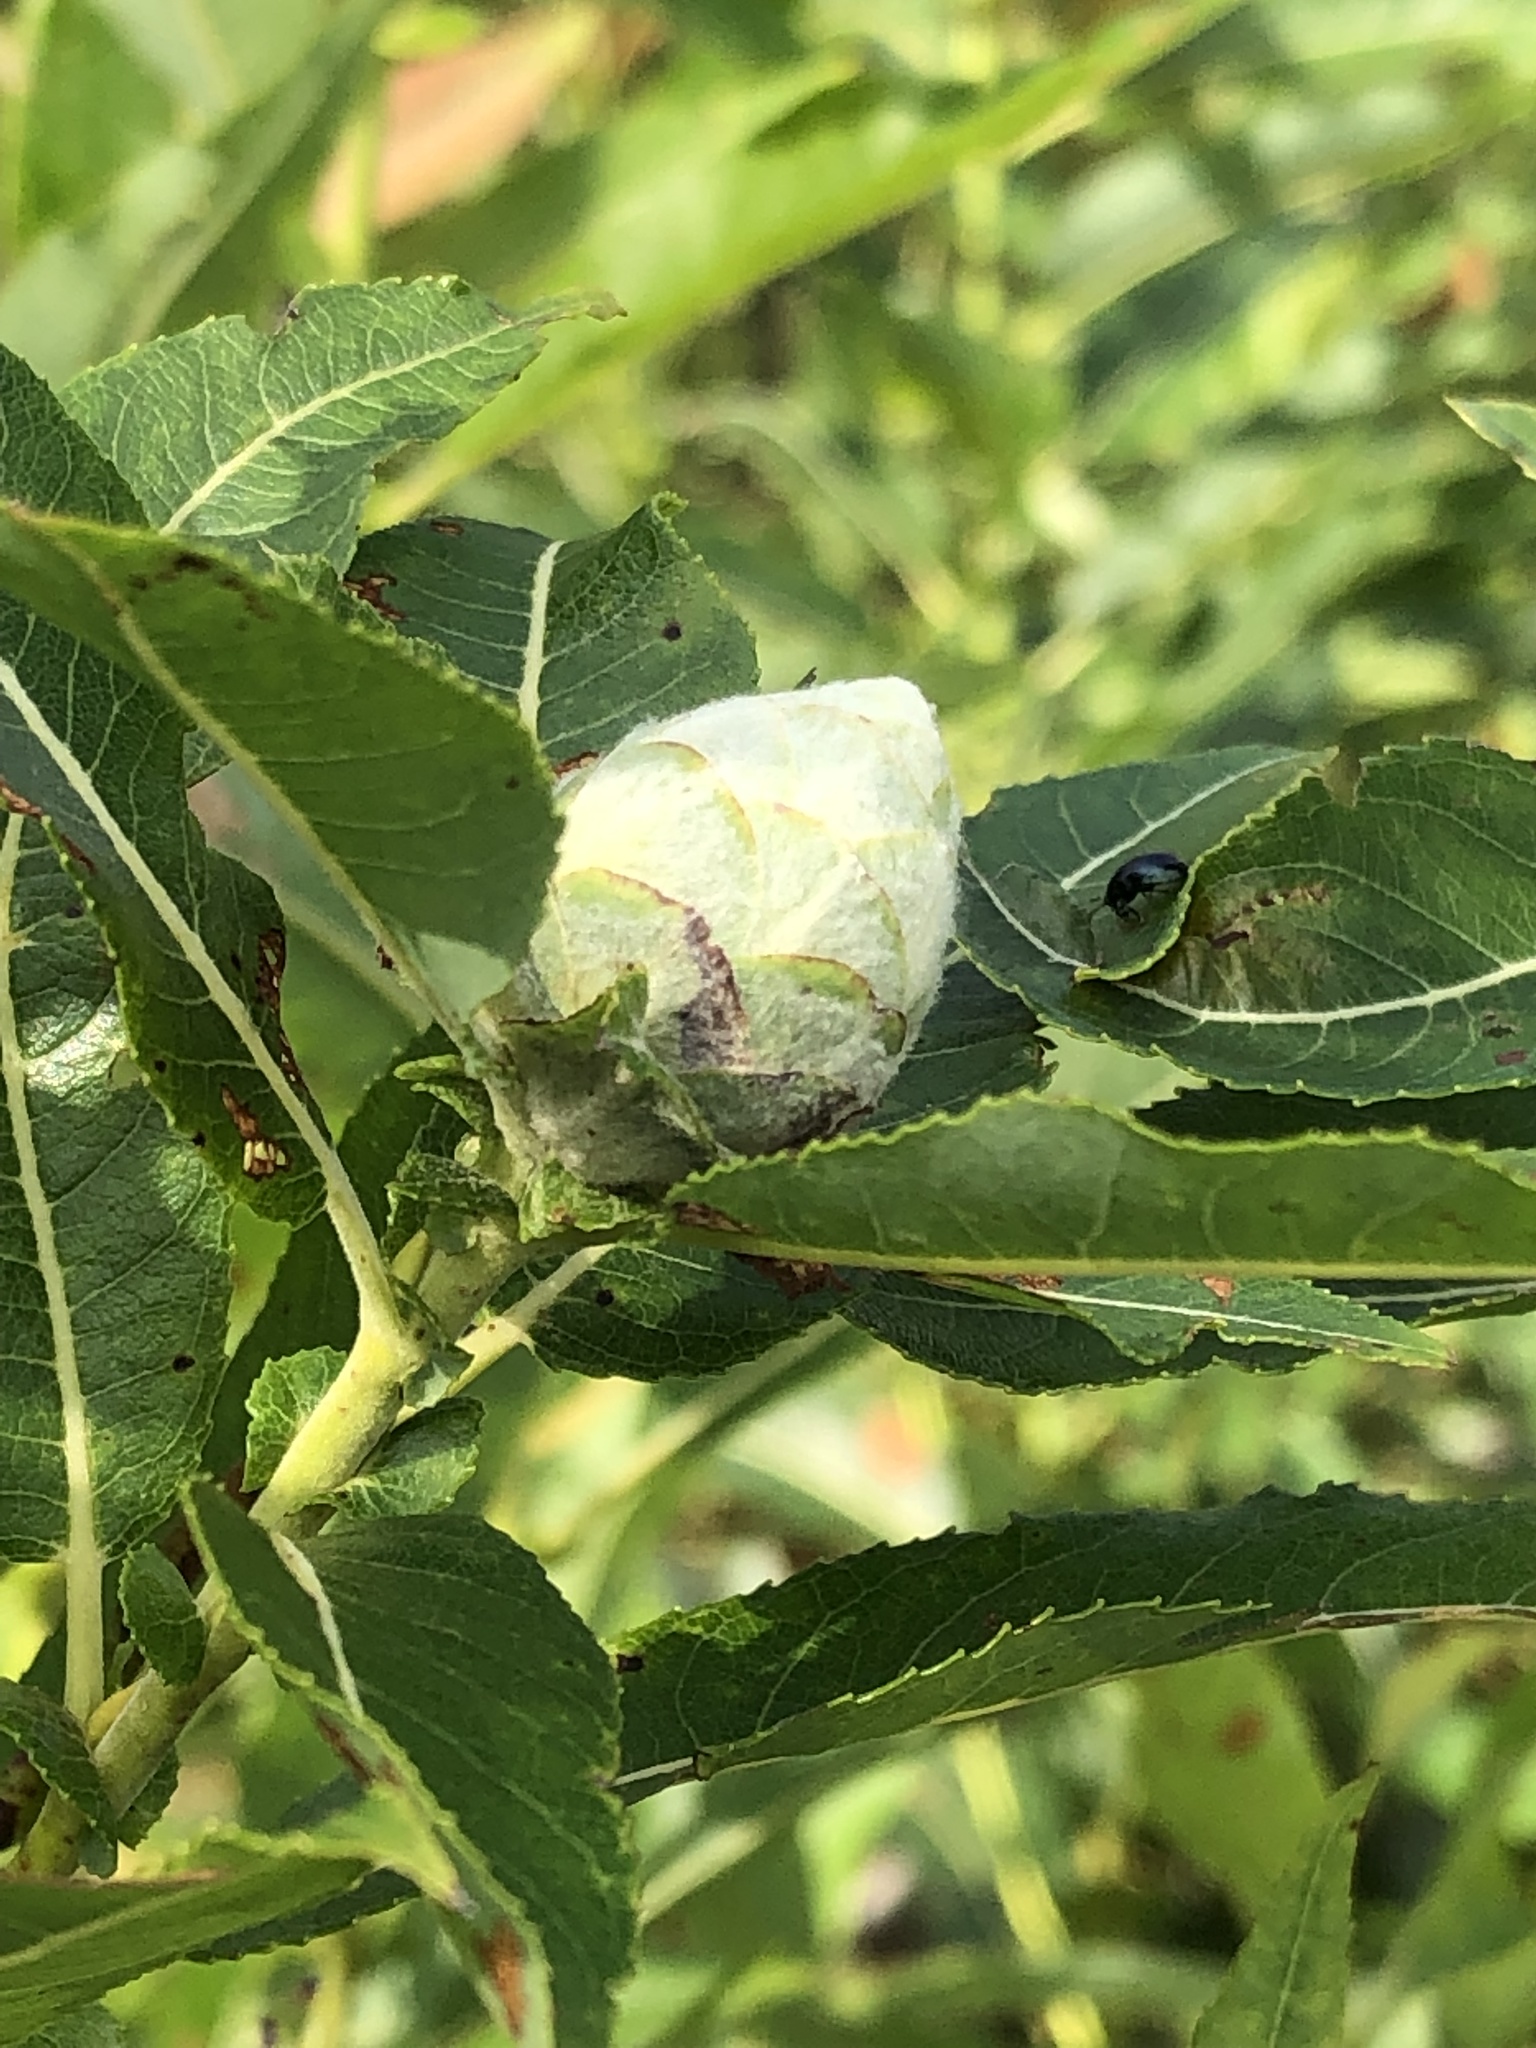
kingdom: Animalia
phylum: Arthropoda
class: Insecta
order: Diptera
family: Cecidomyiidae
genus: Rabdophaga
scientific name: Rabdophaga strobiloides
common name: Willow pinecone gall midge
